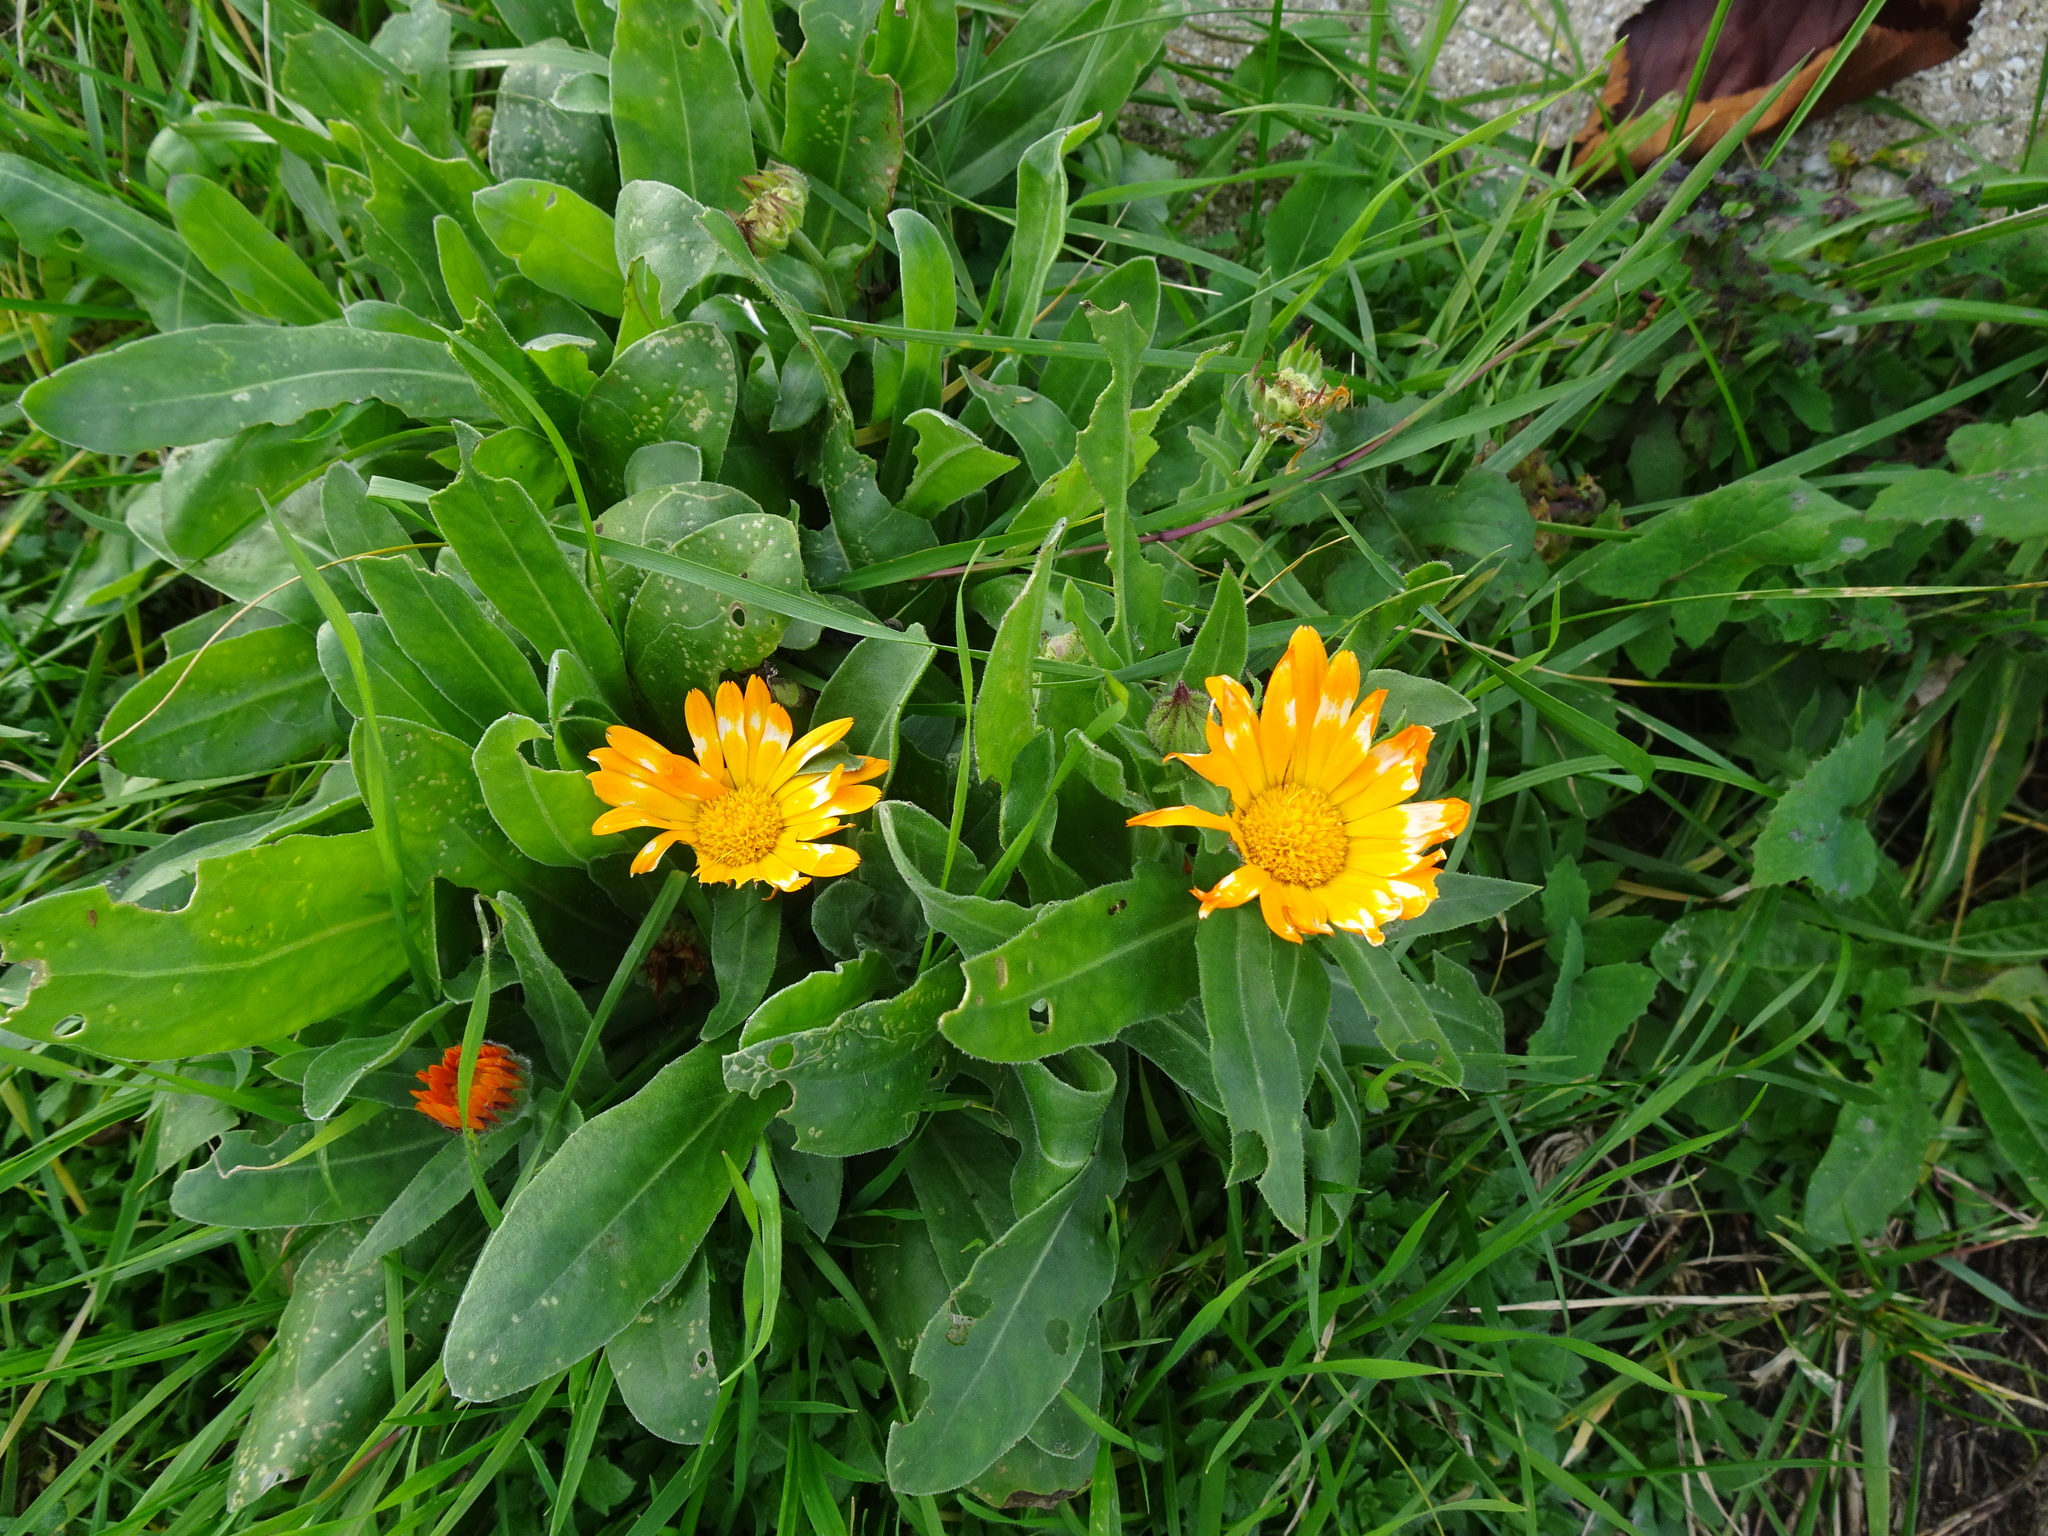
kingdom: Plantae
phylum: Tracheophyta
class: Magnoliopsida
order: Asterales
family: Asteraceae
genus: Calendula
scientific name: Calendula officinalis
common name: Pot marigold
